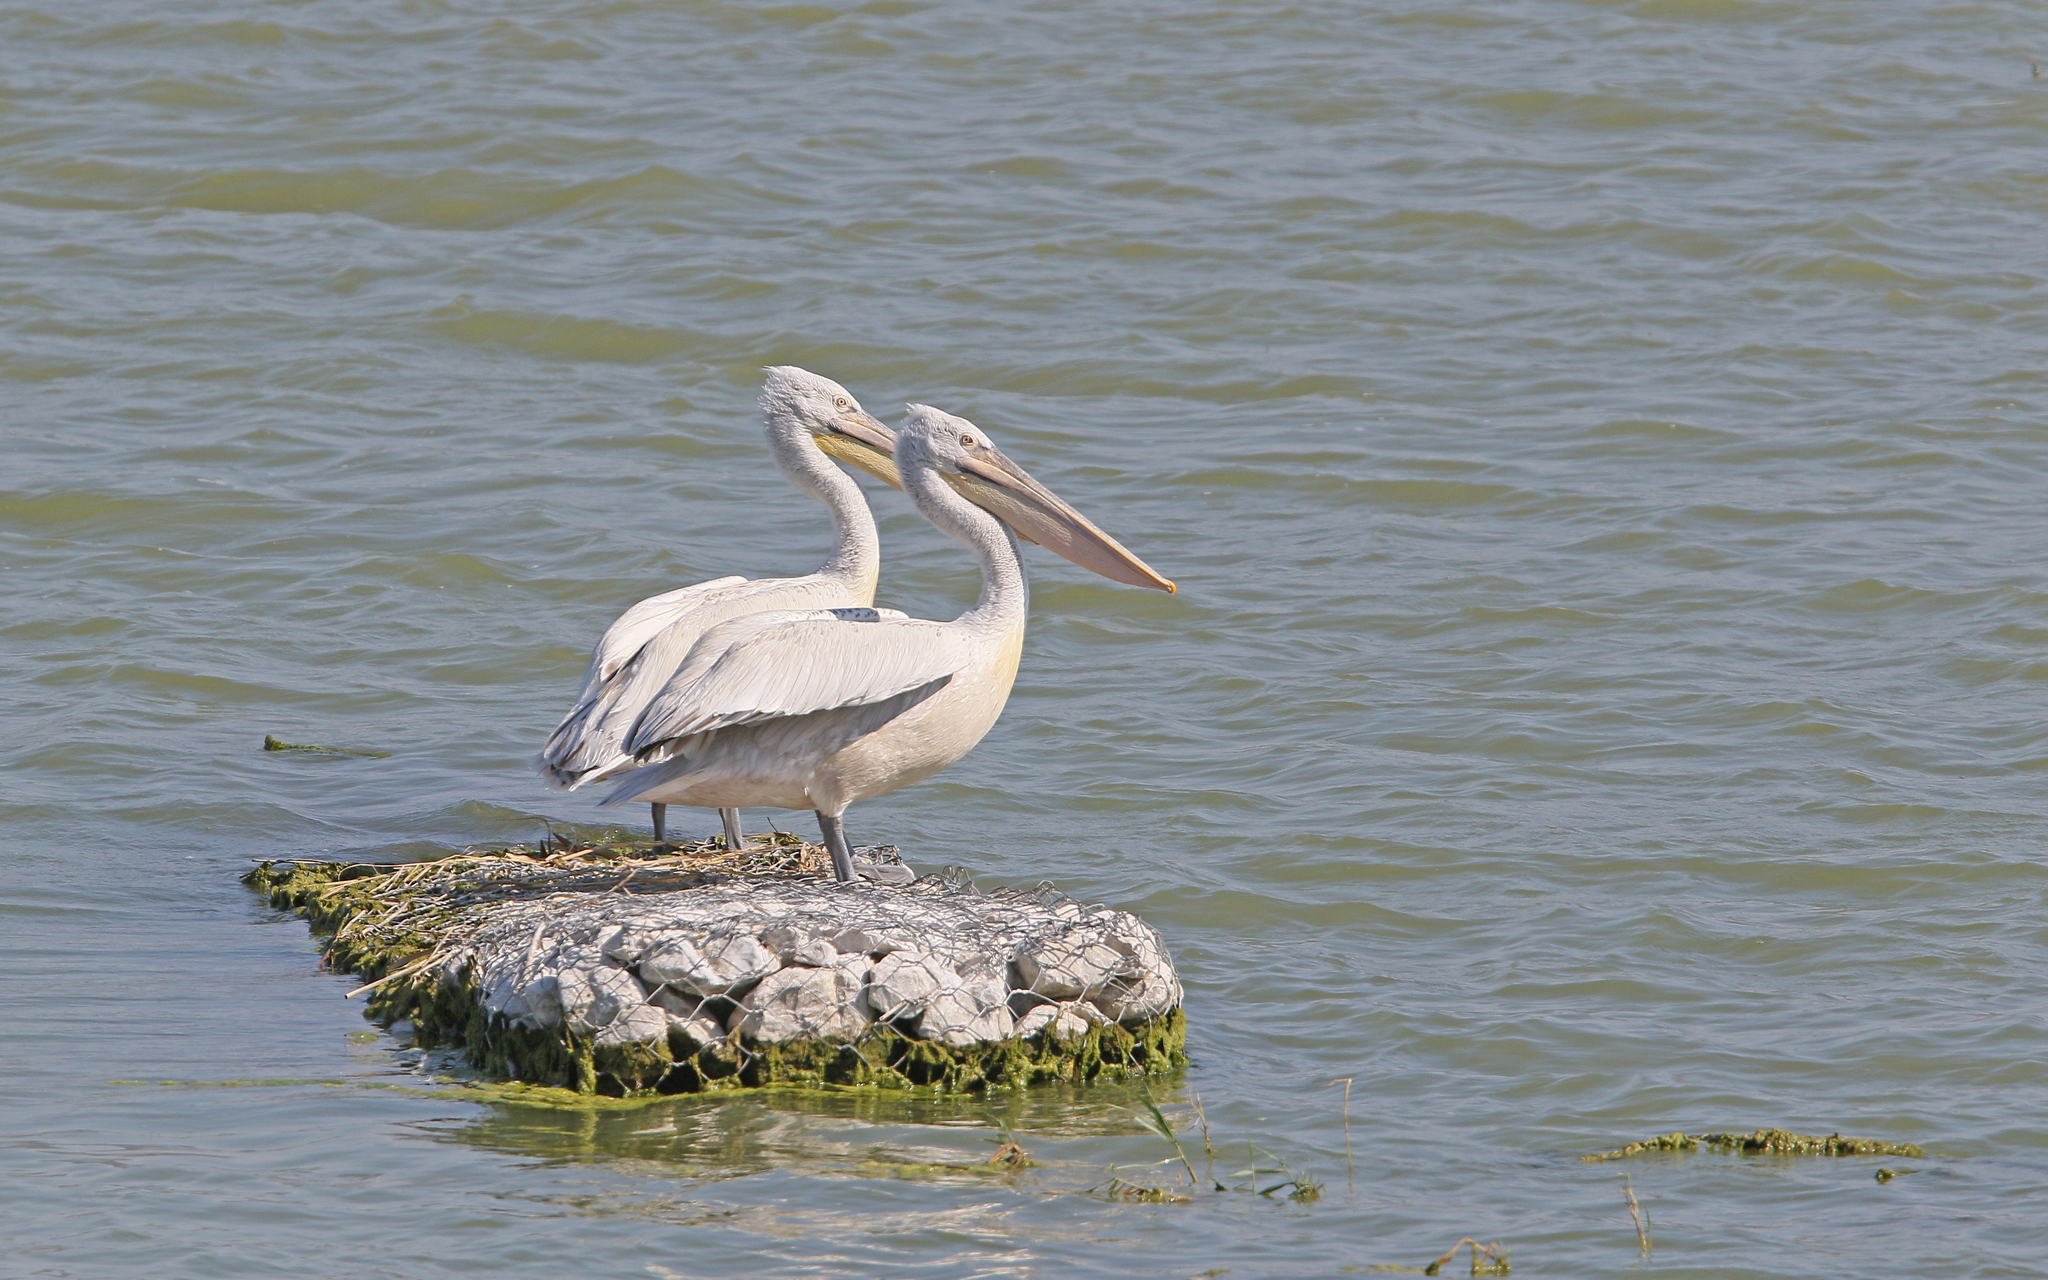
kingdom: Animalia
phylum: Chordata
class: Aves
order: Pelecaniformes
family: Pelecanidae
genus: Pelecanus
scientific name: Pelecanus crispus
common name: Dalmatian pelican
